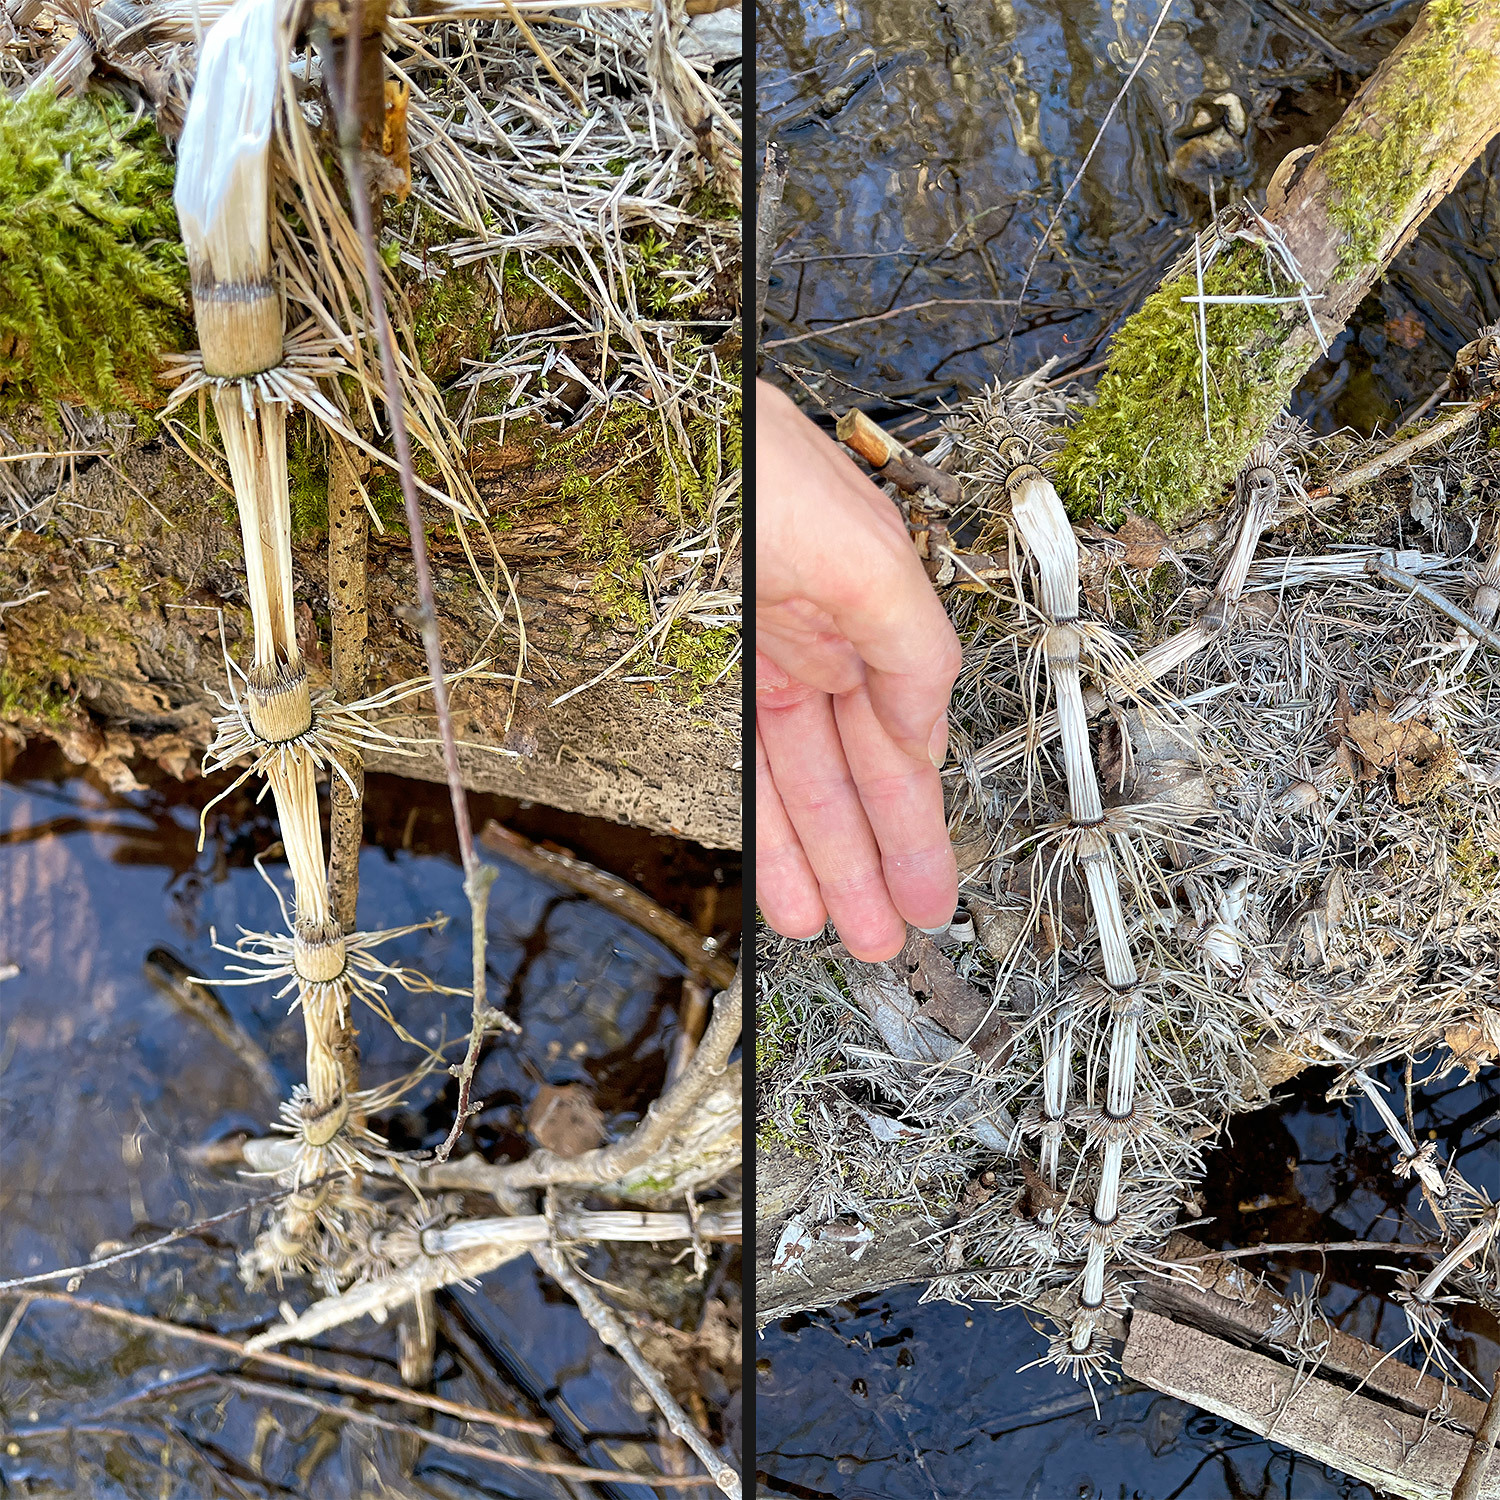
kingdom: Plantae
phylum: Tracheophyta
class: Polypodiopsida
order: Equisetales
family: Equisetaceae
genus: Equisetum
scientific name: Equisetum telmateia
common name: Great horsetail
